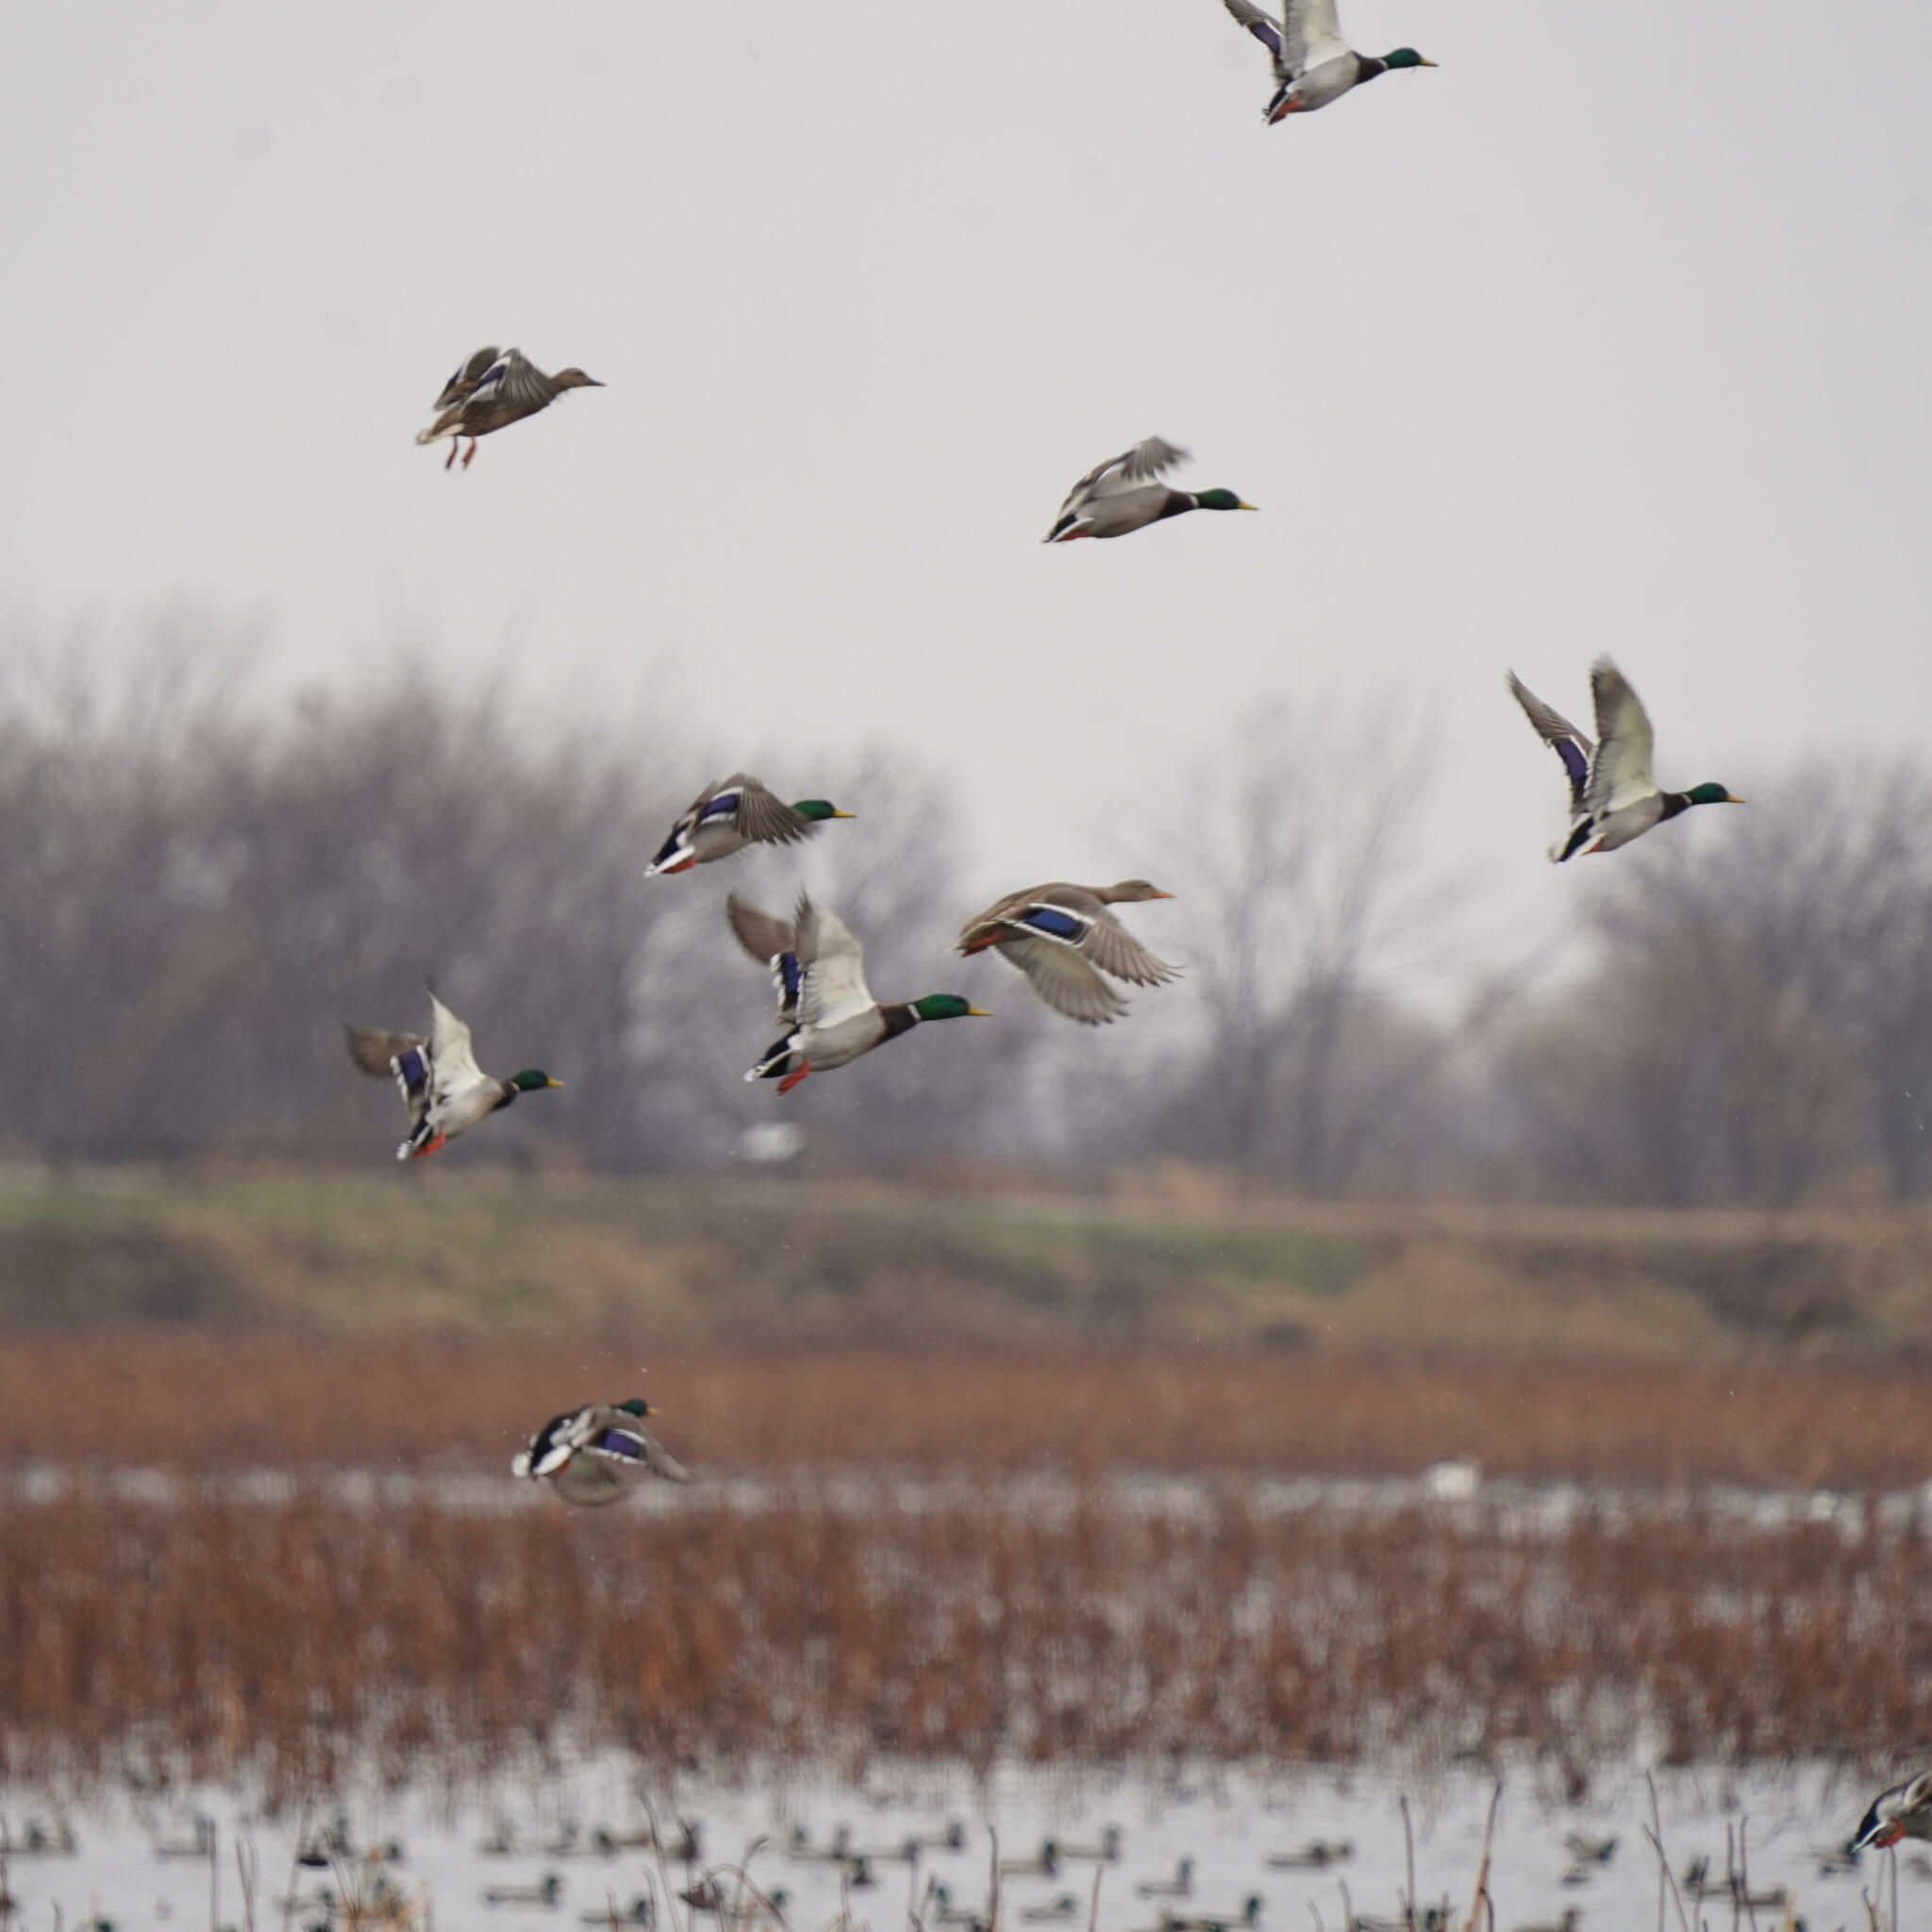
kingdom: Animalia
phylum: Chordata
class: Aves
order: Anseriformes
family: Anatidae
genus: Anas
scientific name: Anas platyrhynchos
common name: Mallard
